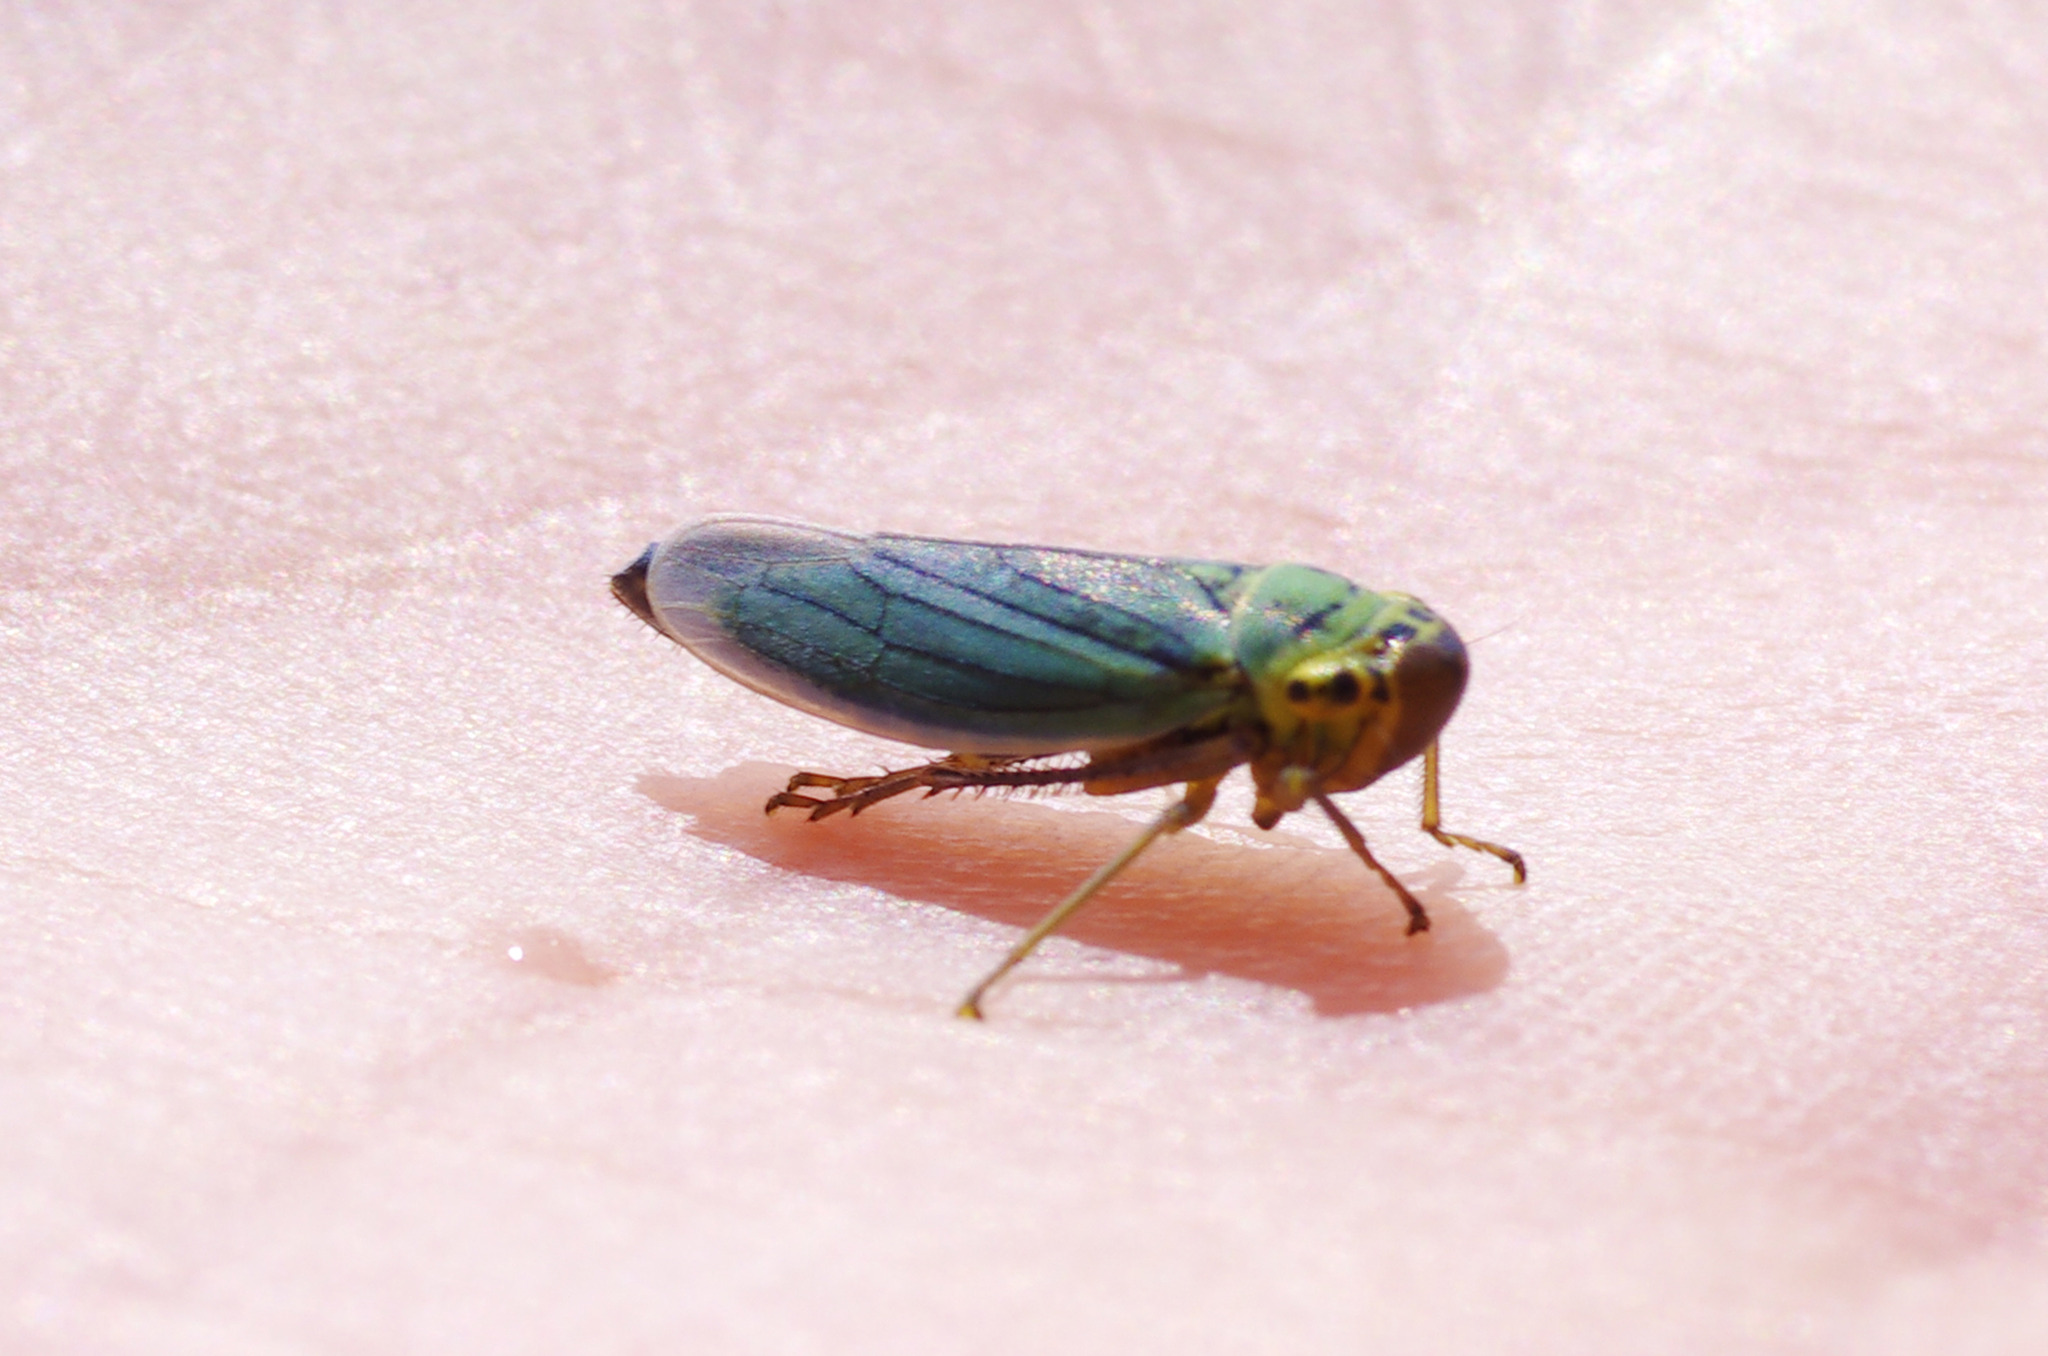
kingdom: Animalia
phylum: Arthropoda
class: Insecta
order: Hemiptera
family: Cicadellidae
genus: Cicadella
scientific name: Cicadella viridis
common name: Leafhopper
